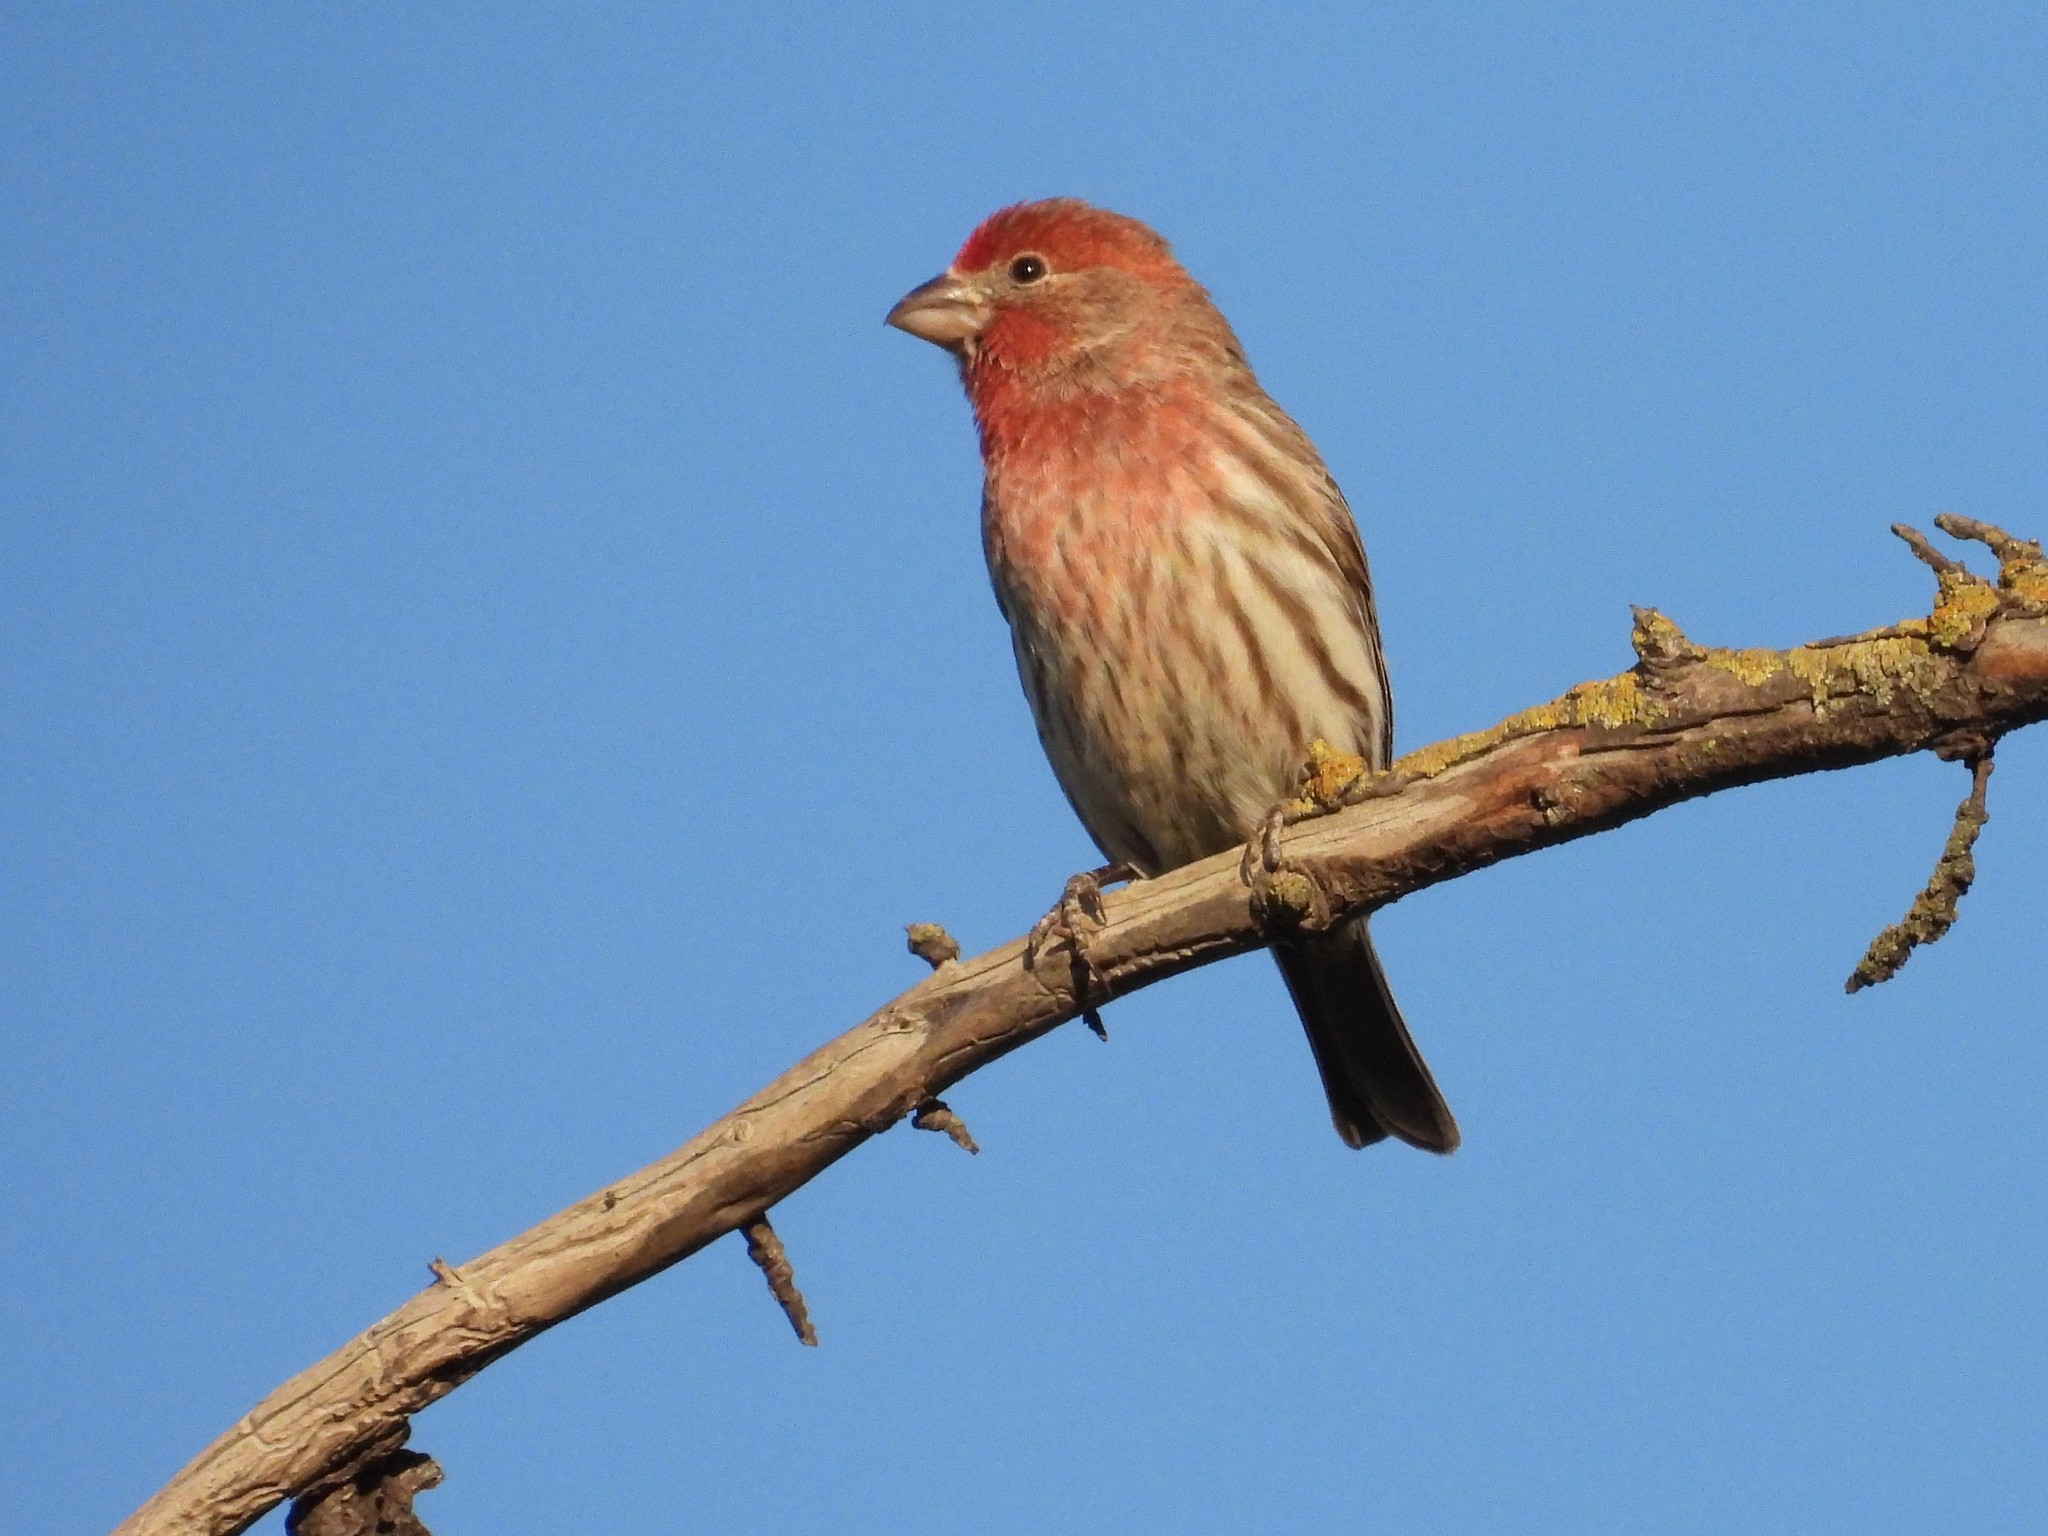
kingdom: Animalia
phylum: Chordata
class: Aves
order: Passeriformes
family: Fringillidae
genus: Haemorhous
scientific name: Haemorhous mexicanus
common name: House finch
